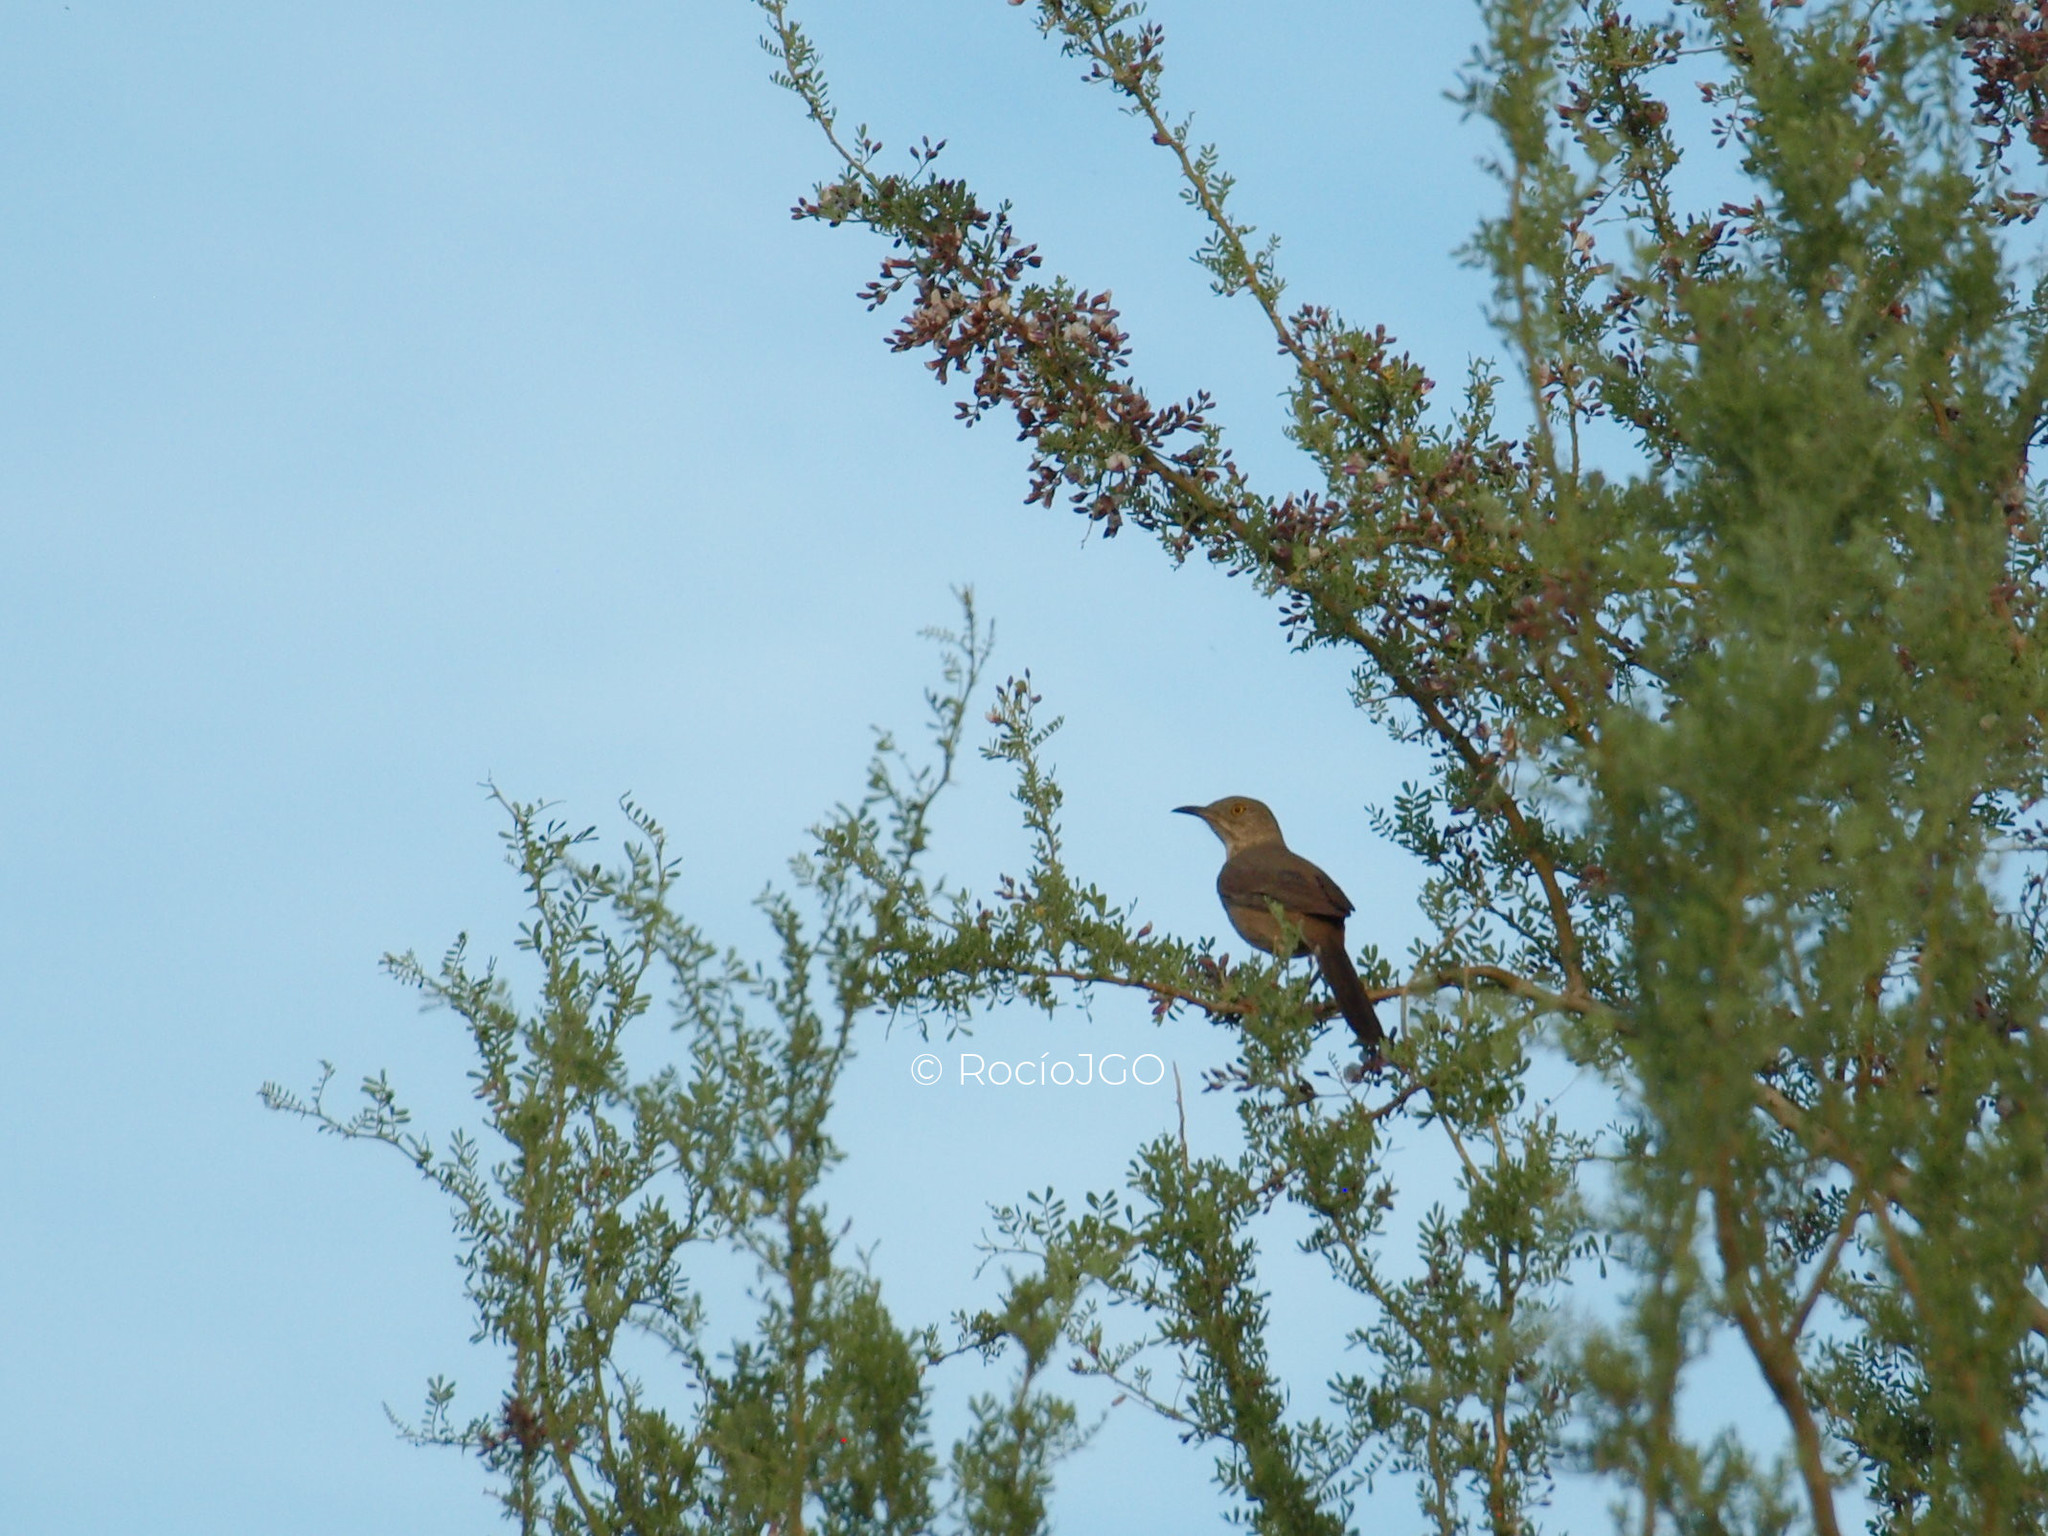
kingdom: Animalia
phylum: Chordata
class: Aves
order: Passeriformes
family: Mimidae
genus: Toxostoma
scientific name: Toxostoma bendirei
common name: Bendire's thrasher
